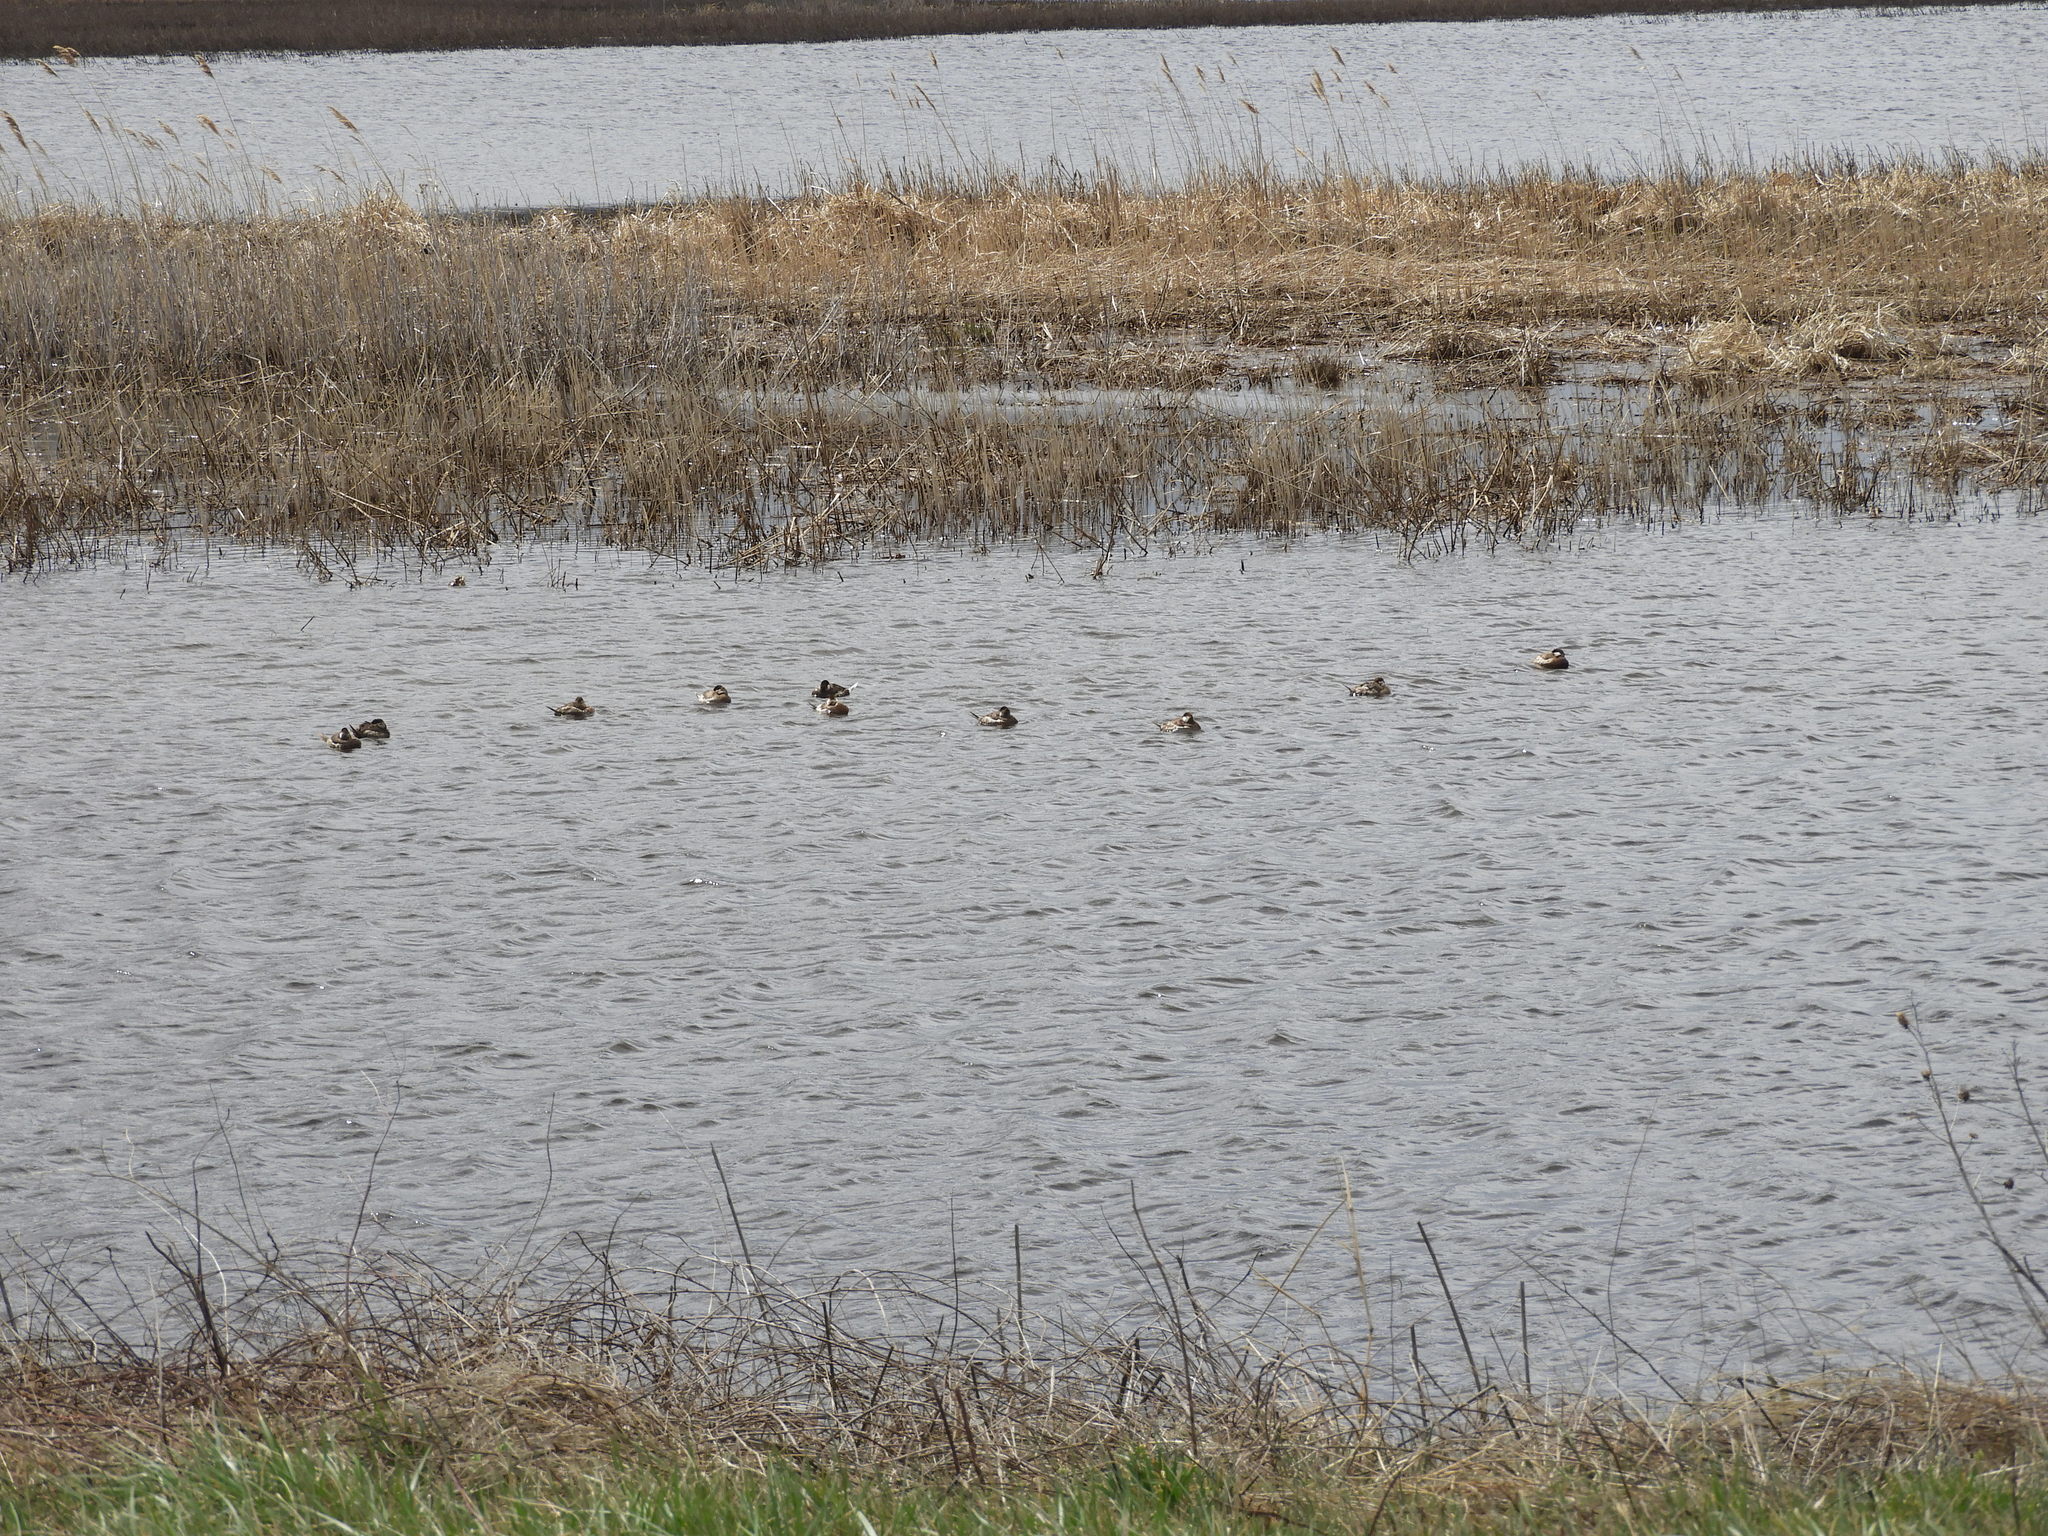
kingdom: Animalia
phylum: Chordata
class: Aves
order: Anseriformes
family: Anatidae
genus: Oxyura
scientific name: Oxyura jamaicensis
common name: Ruddy duck
